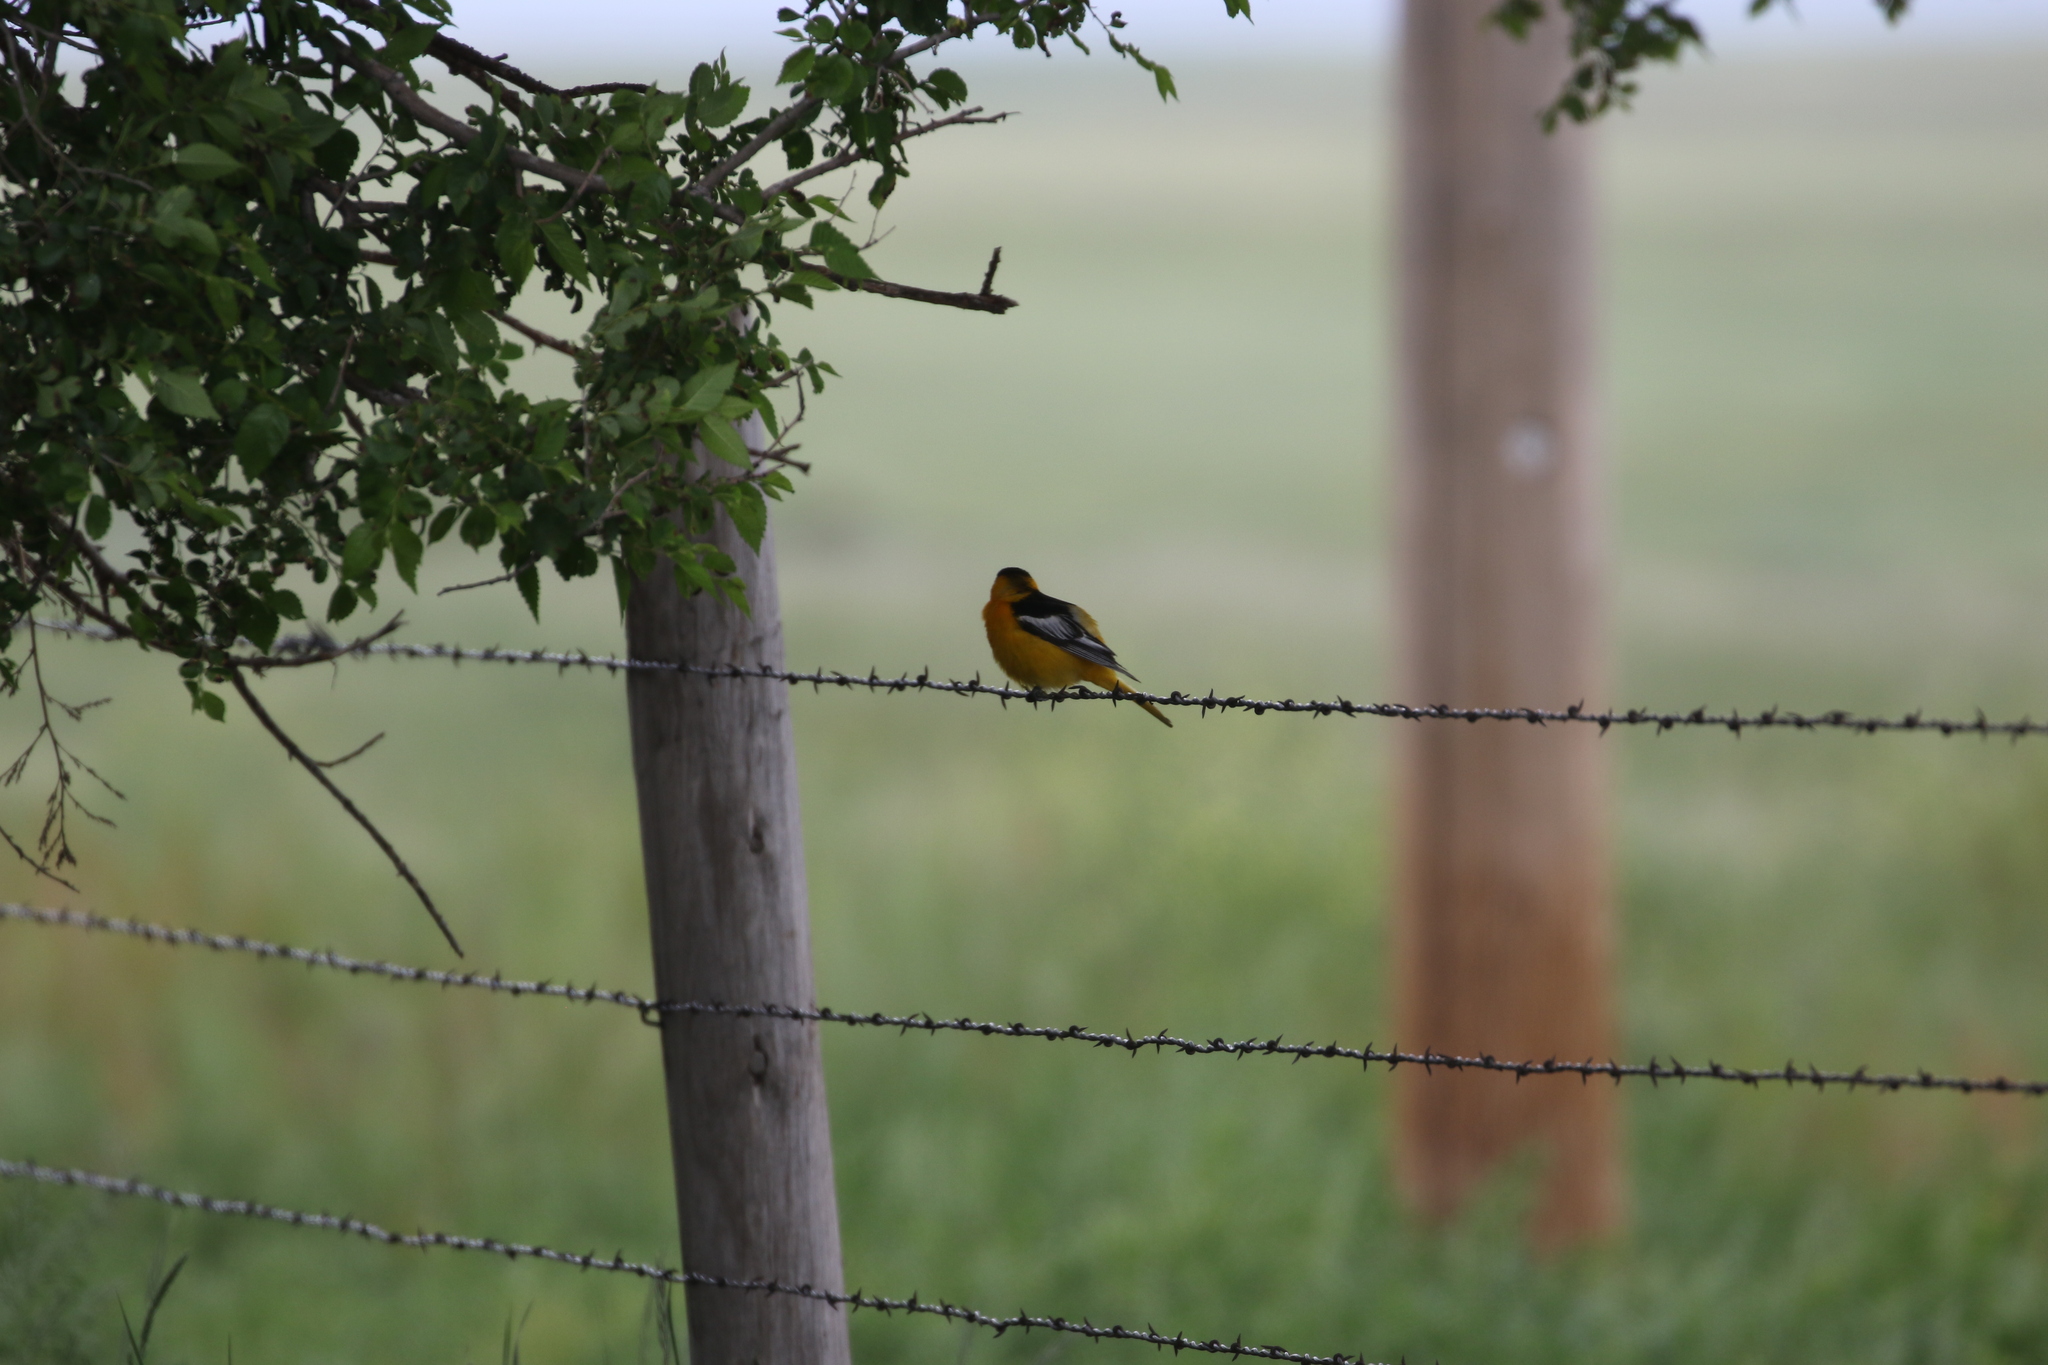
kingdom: Animalia
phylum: Chordata
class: Aves
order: Passeriformes
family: Icteridae
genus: Icterus
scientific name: Icterus bullockii
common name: Bullock's oriole
